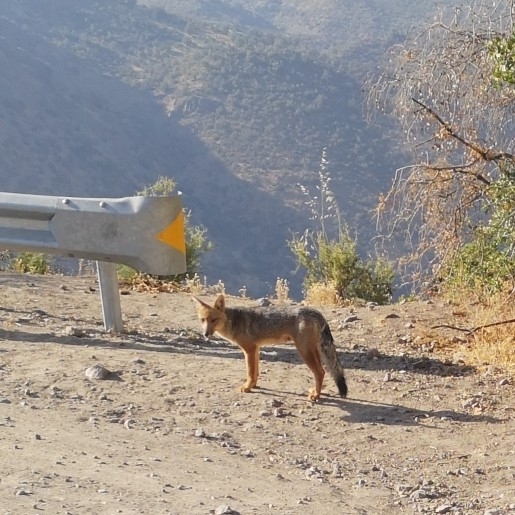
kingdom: Animalia
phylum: Chordata
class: Mammalia
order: Carnivora
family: Canidae
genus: Lycalopex
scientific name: Lycalopex culpaeus
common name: Culpeo
